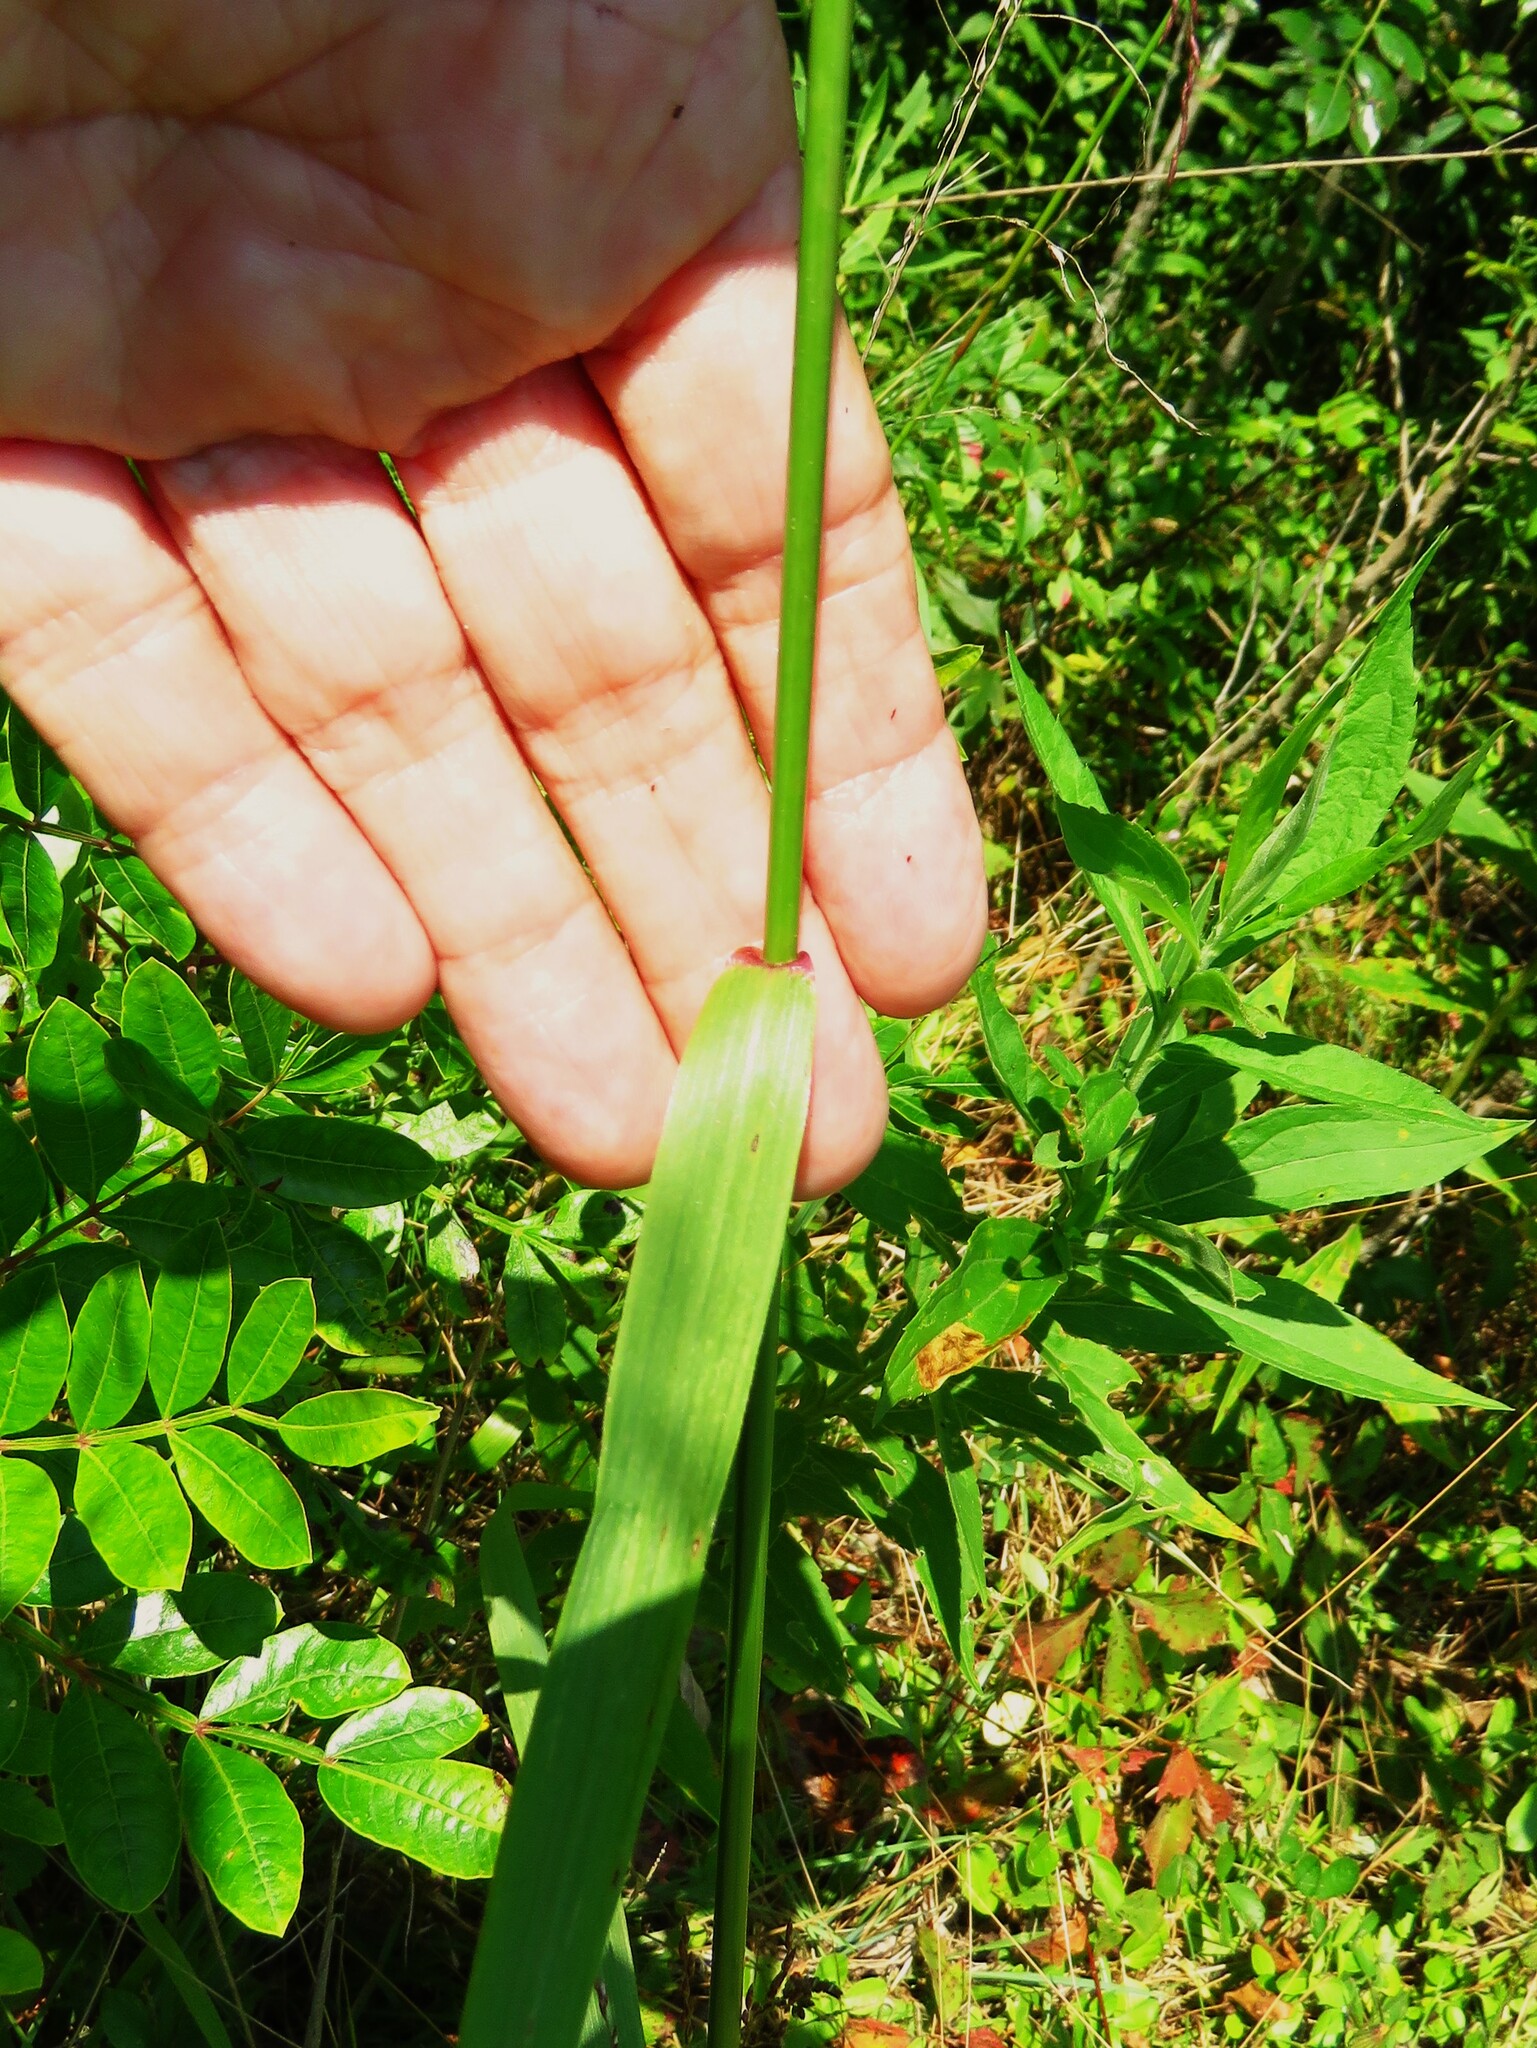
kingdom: Plantae
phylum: Tracheophyta
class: Liliopsida
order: Poales
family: Poaceae
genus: Tridens
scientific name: Tridens flavus
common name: Purpletop
